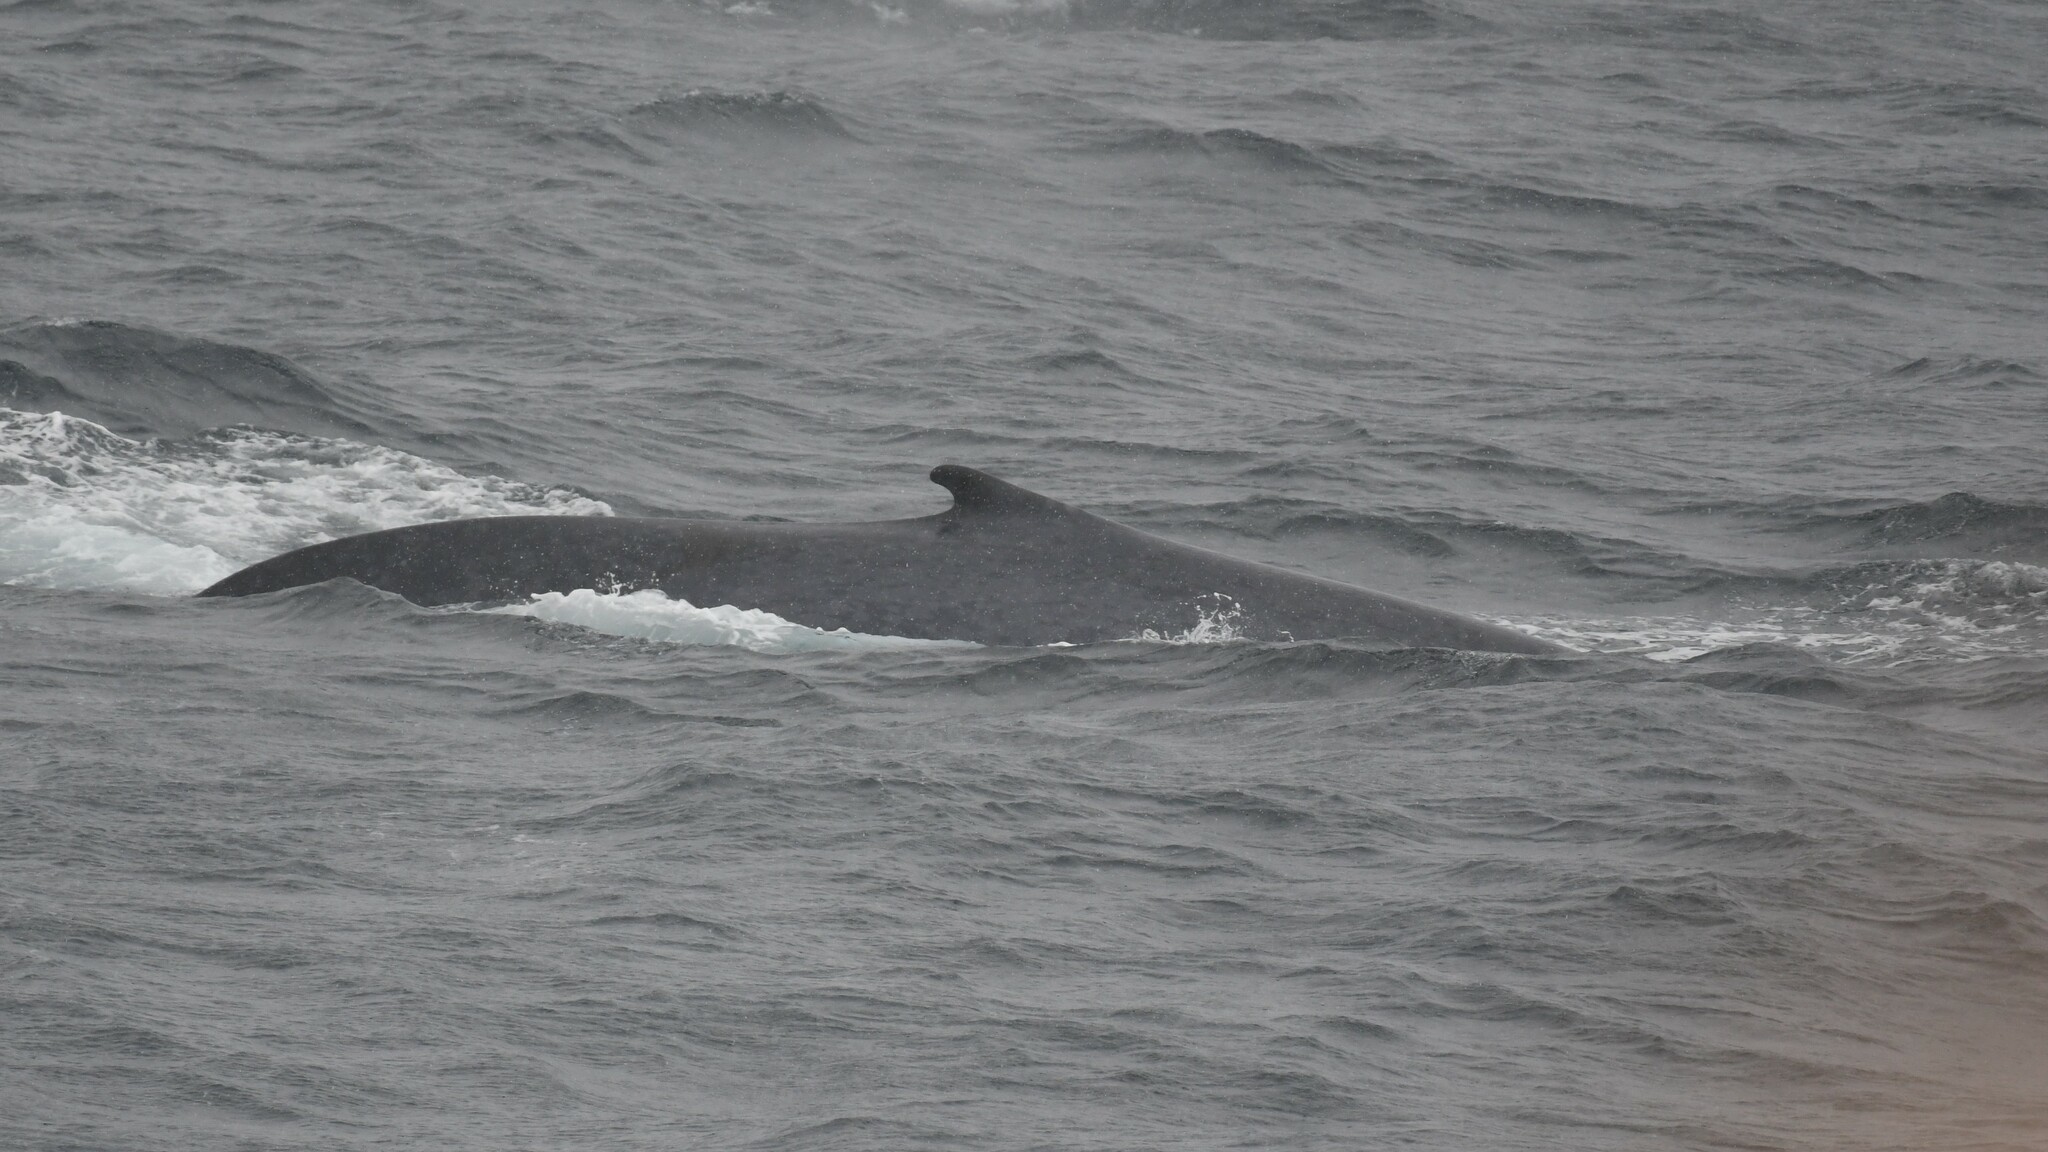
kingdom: Animalia
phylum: Chordata
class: Mammalia
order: Cetacea
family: Balaenopteridae
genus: Balaenoptera
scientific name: Balaenoptera musculus
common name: Blue whale
